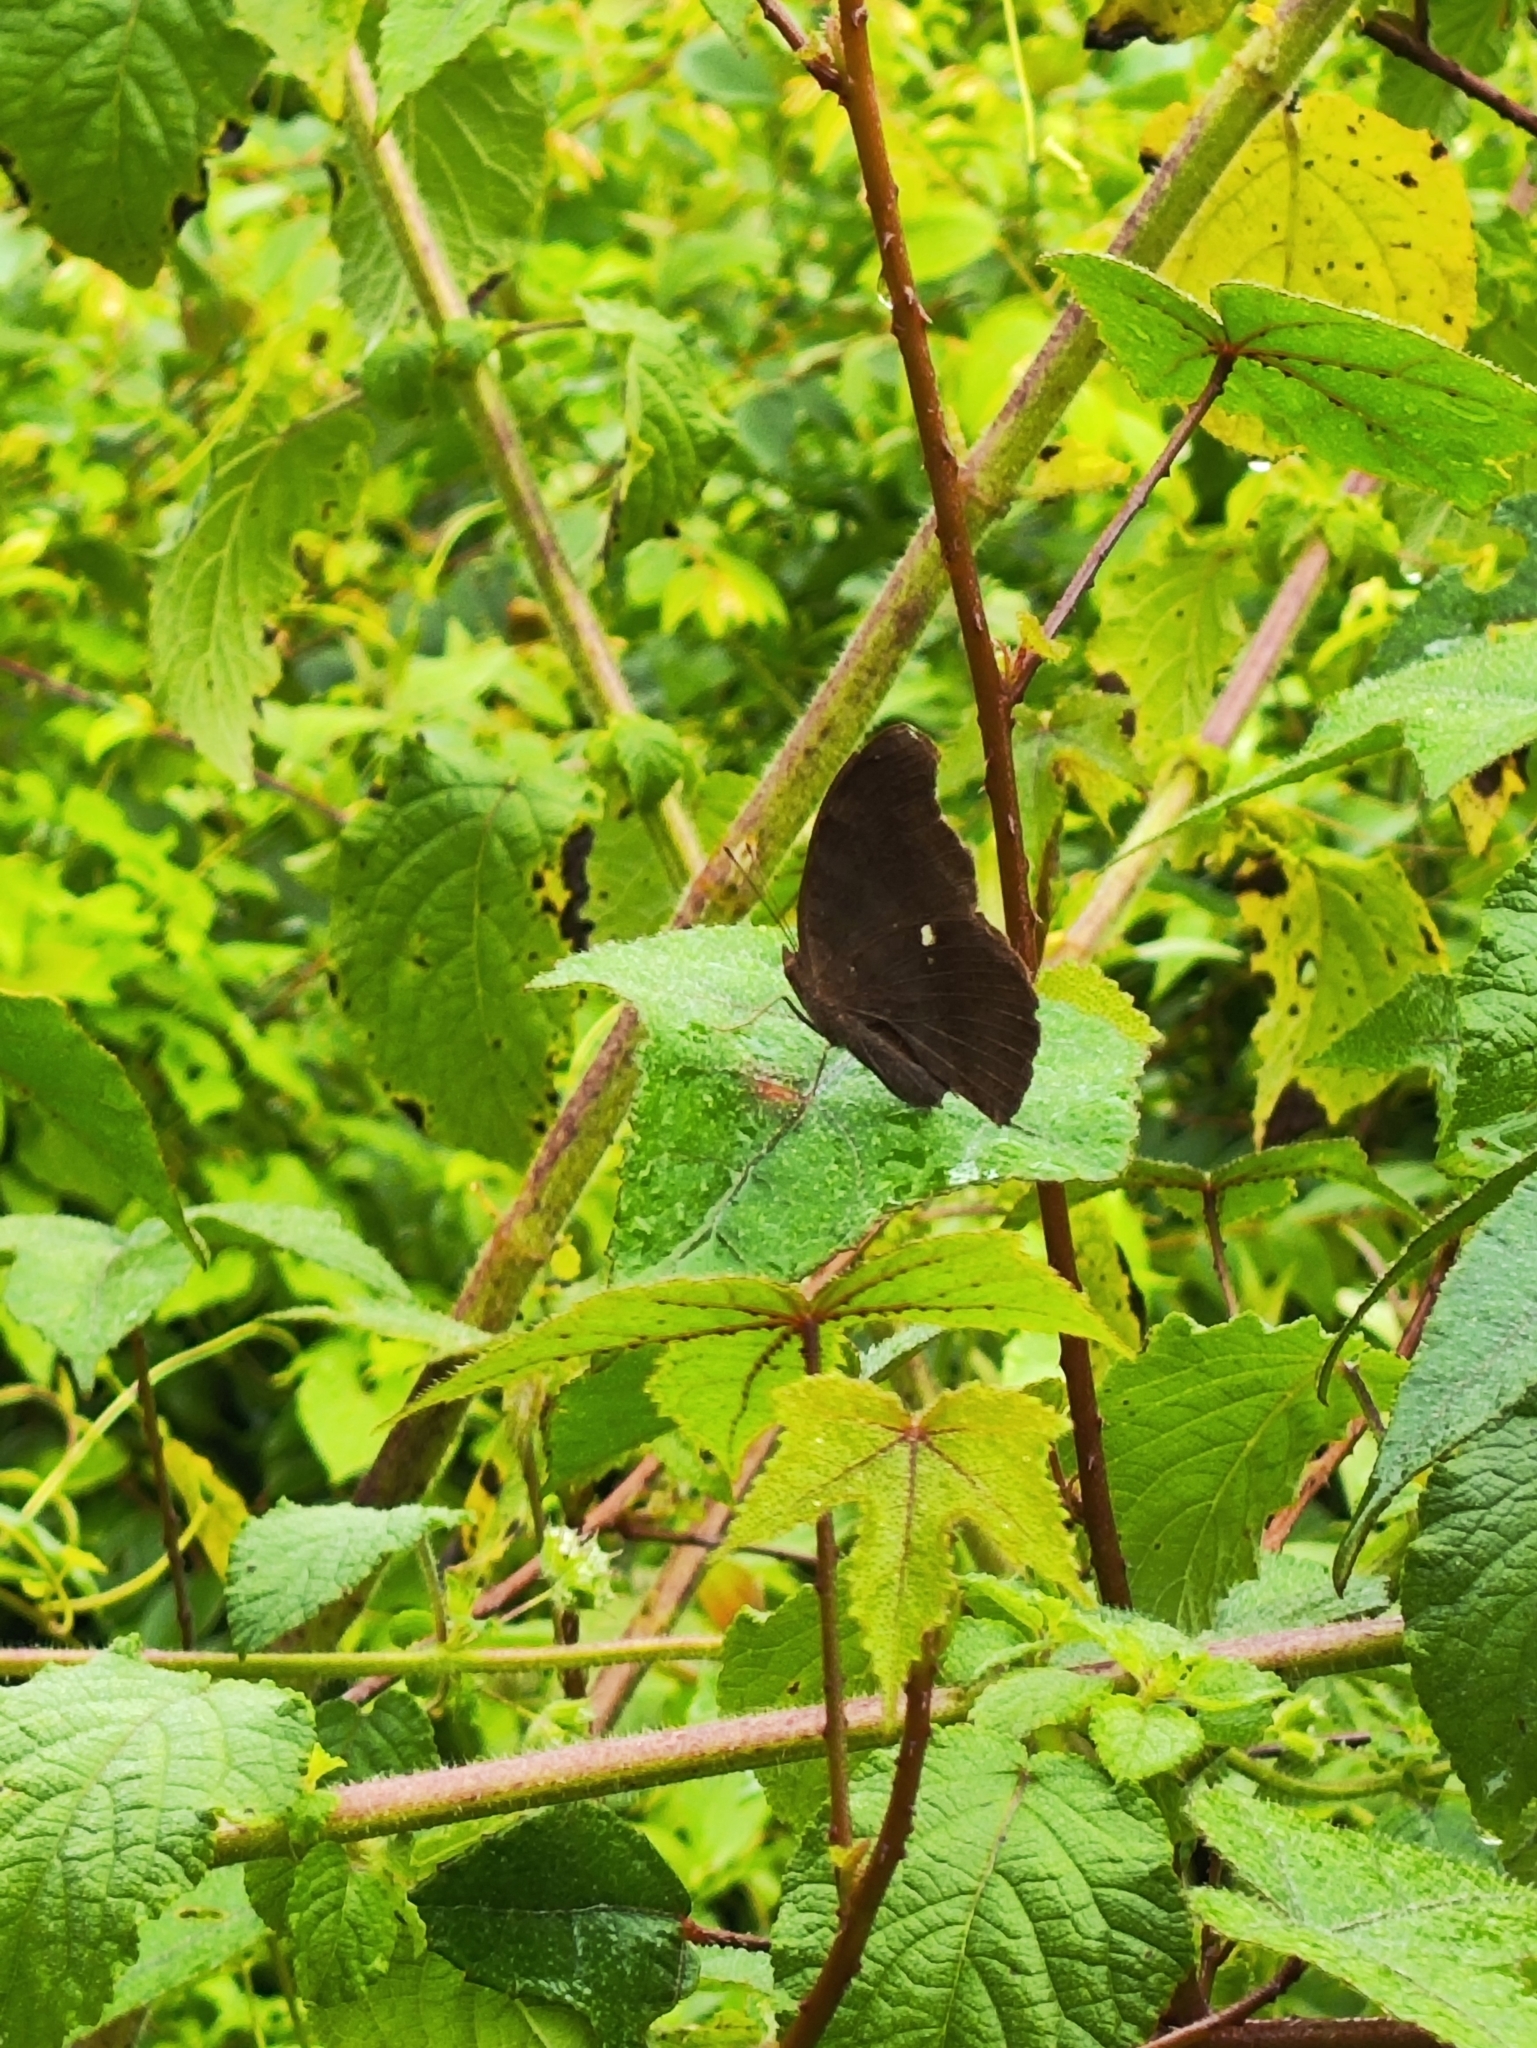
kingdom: Animalia
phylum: Arthropoda
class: Insecta
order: Lepidoptera
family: Nymphalidae
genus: Junonia
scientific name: Junonia iphita
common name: Chocolate pansy
